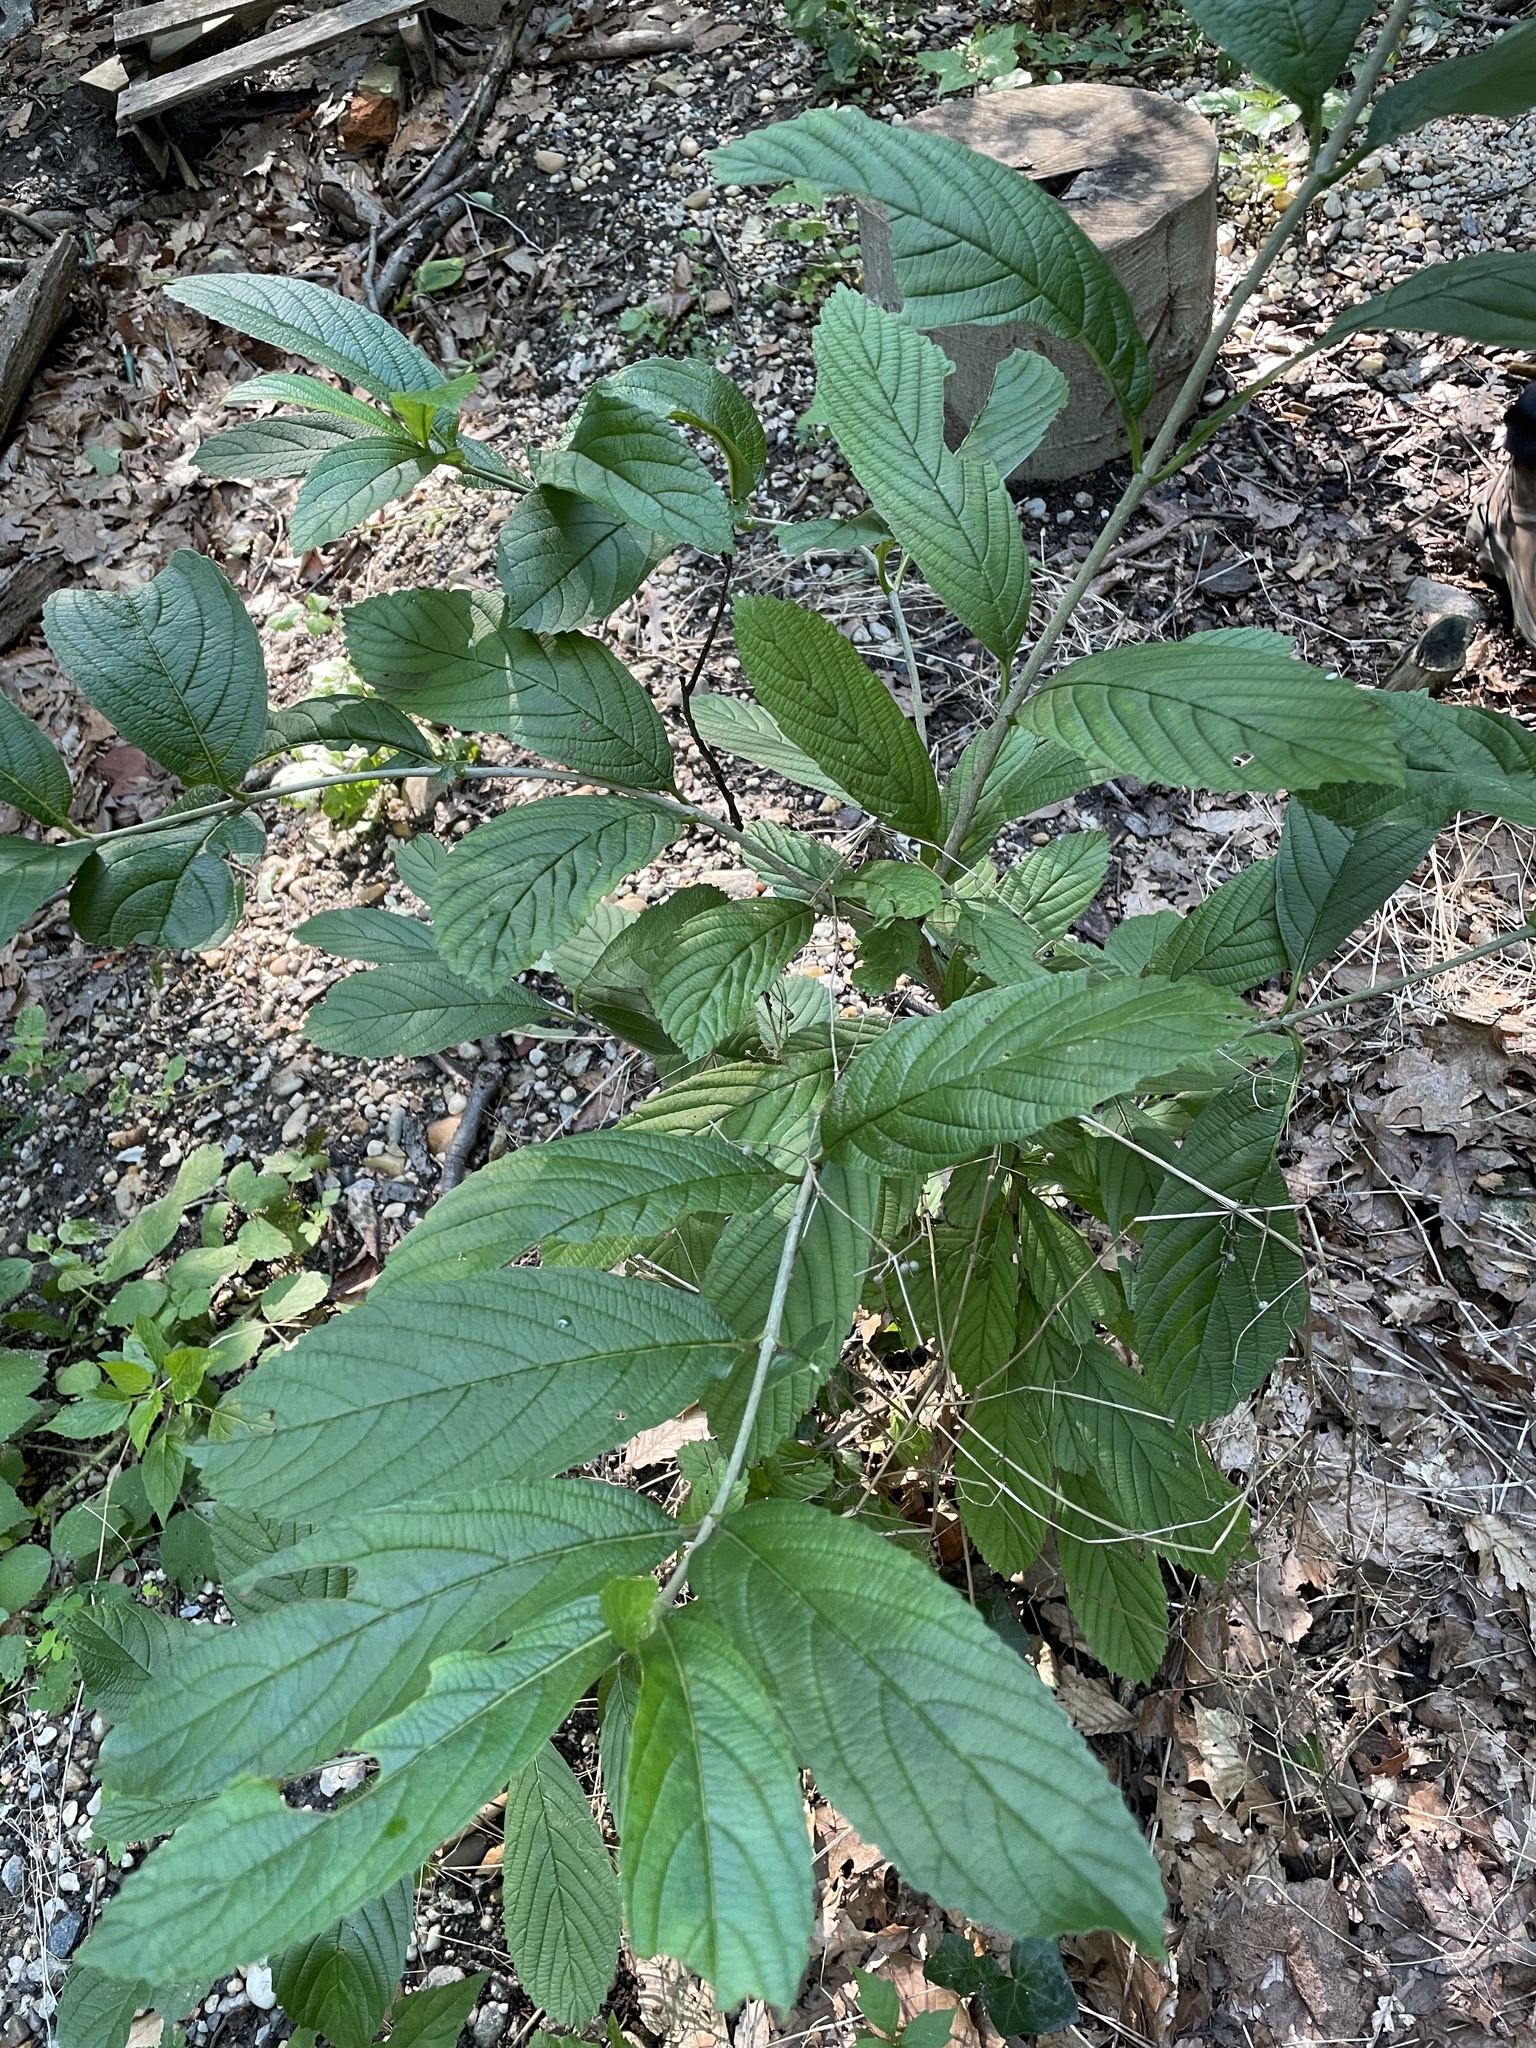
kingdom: Plantae
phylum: Tracheophyta
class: Magnoliopsida
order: Dipsacales
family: Viburnaceae
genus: Viburnum
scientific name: Viburnum sieboldii
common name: Siebold's arrowwood
